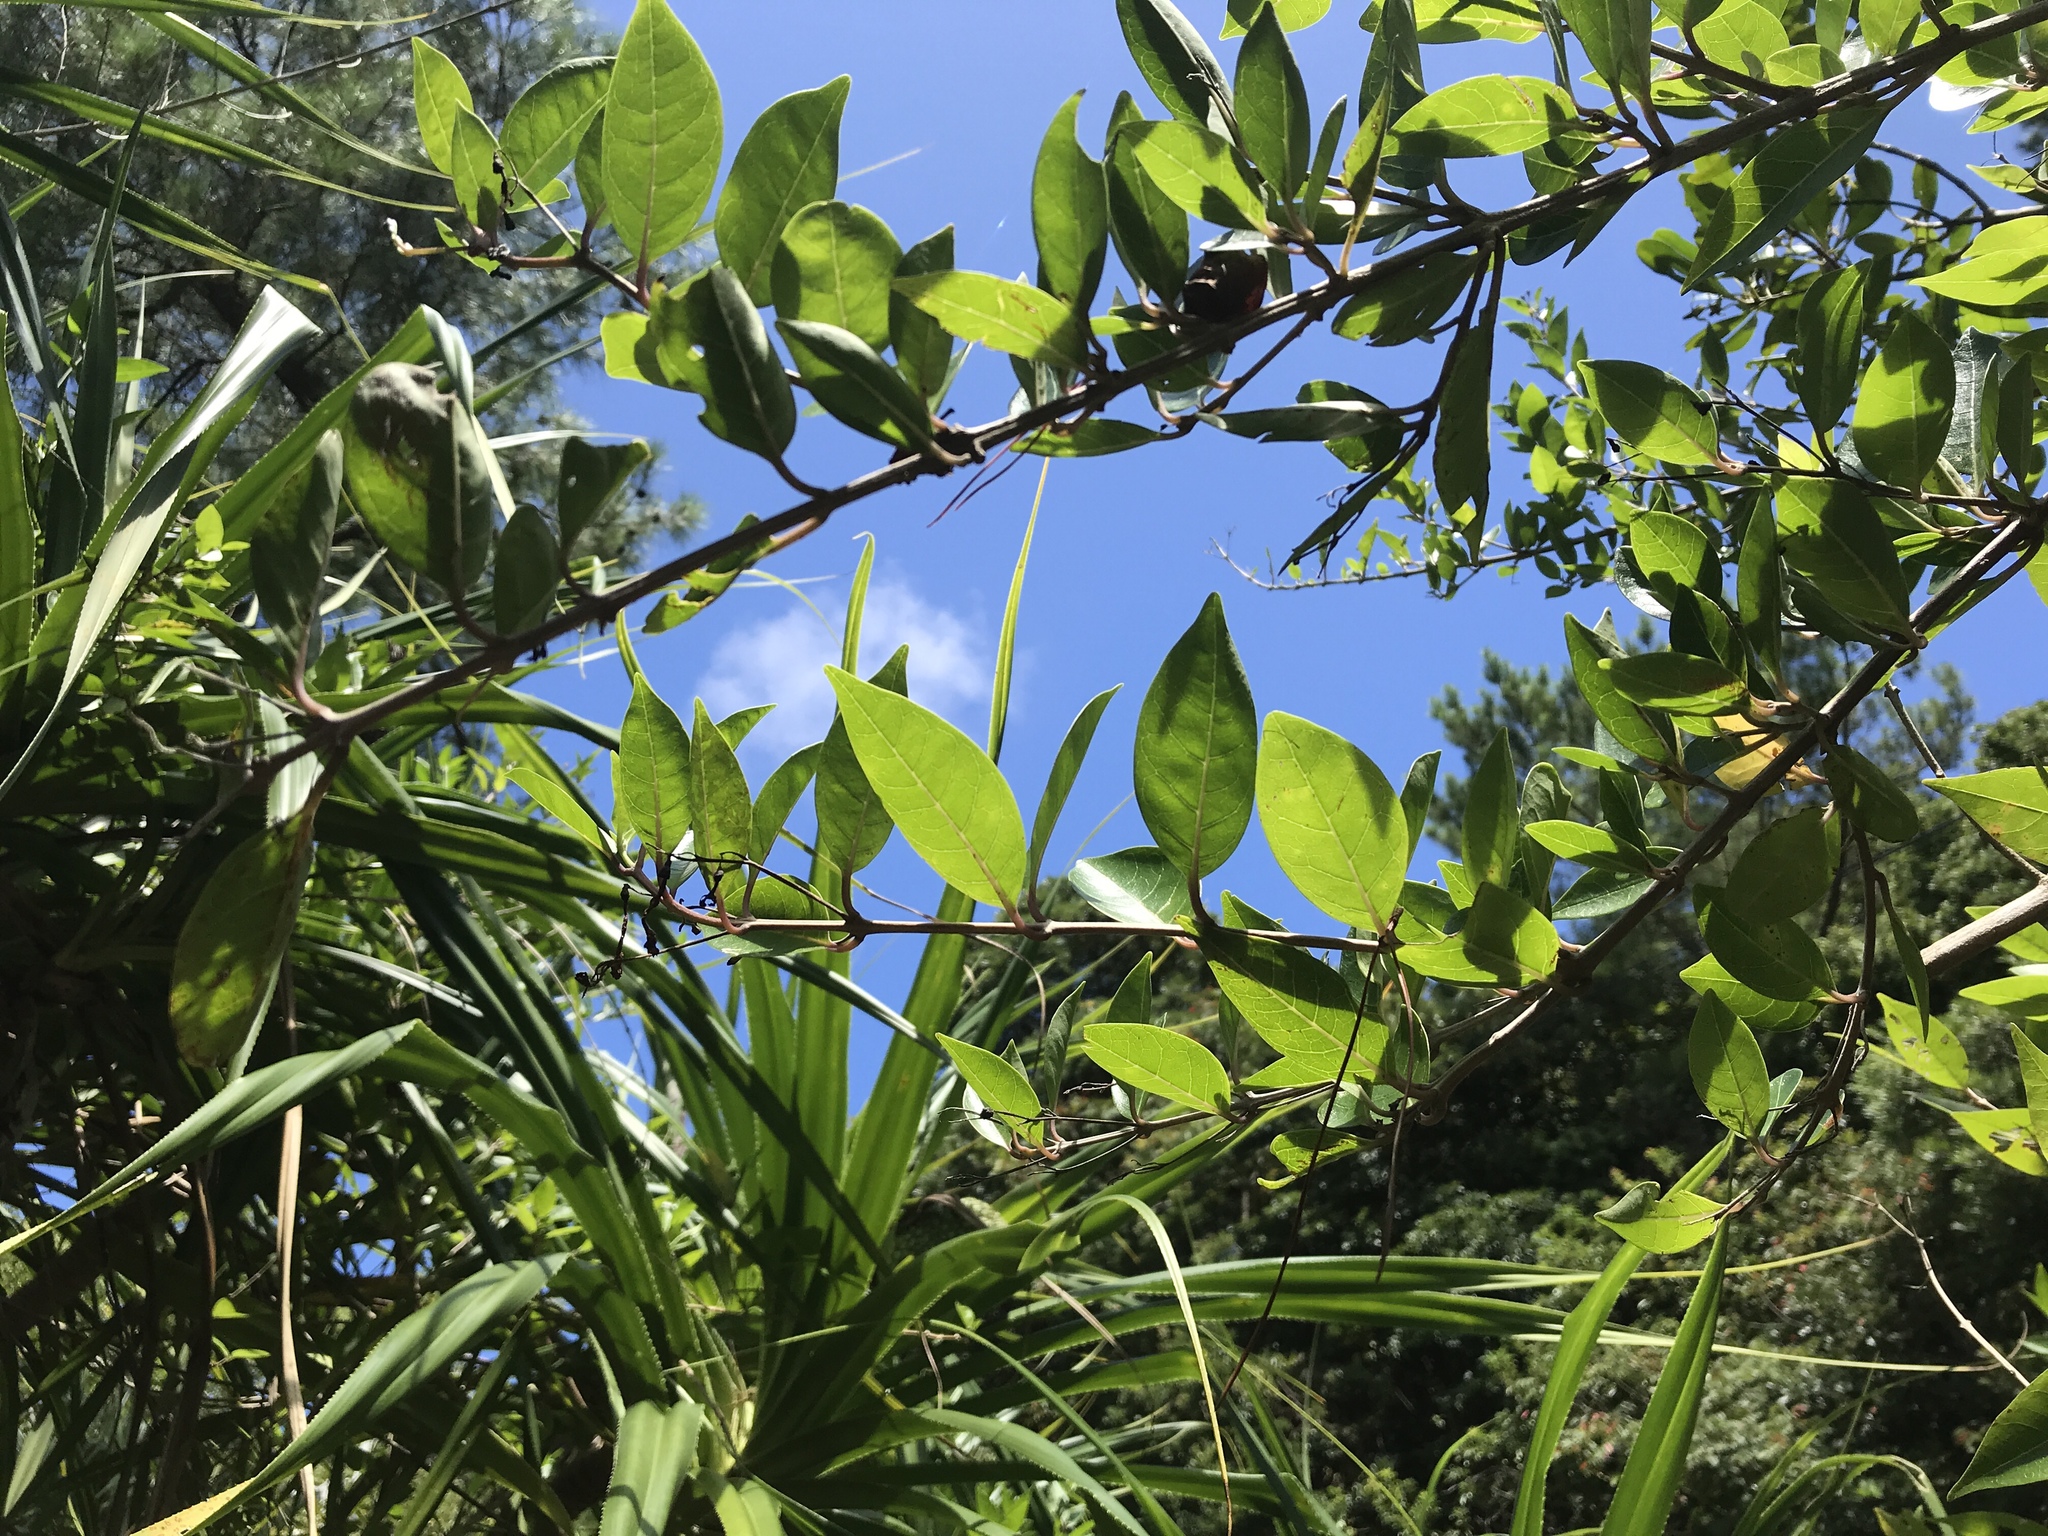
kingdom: Plantae
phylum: Tracheophyta
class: Magnoliopsida
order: Lamiales
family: Lamiaceae
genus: Volkameria
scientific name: Volkameria inermis
